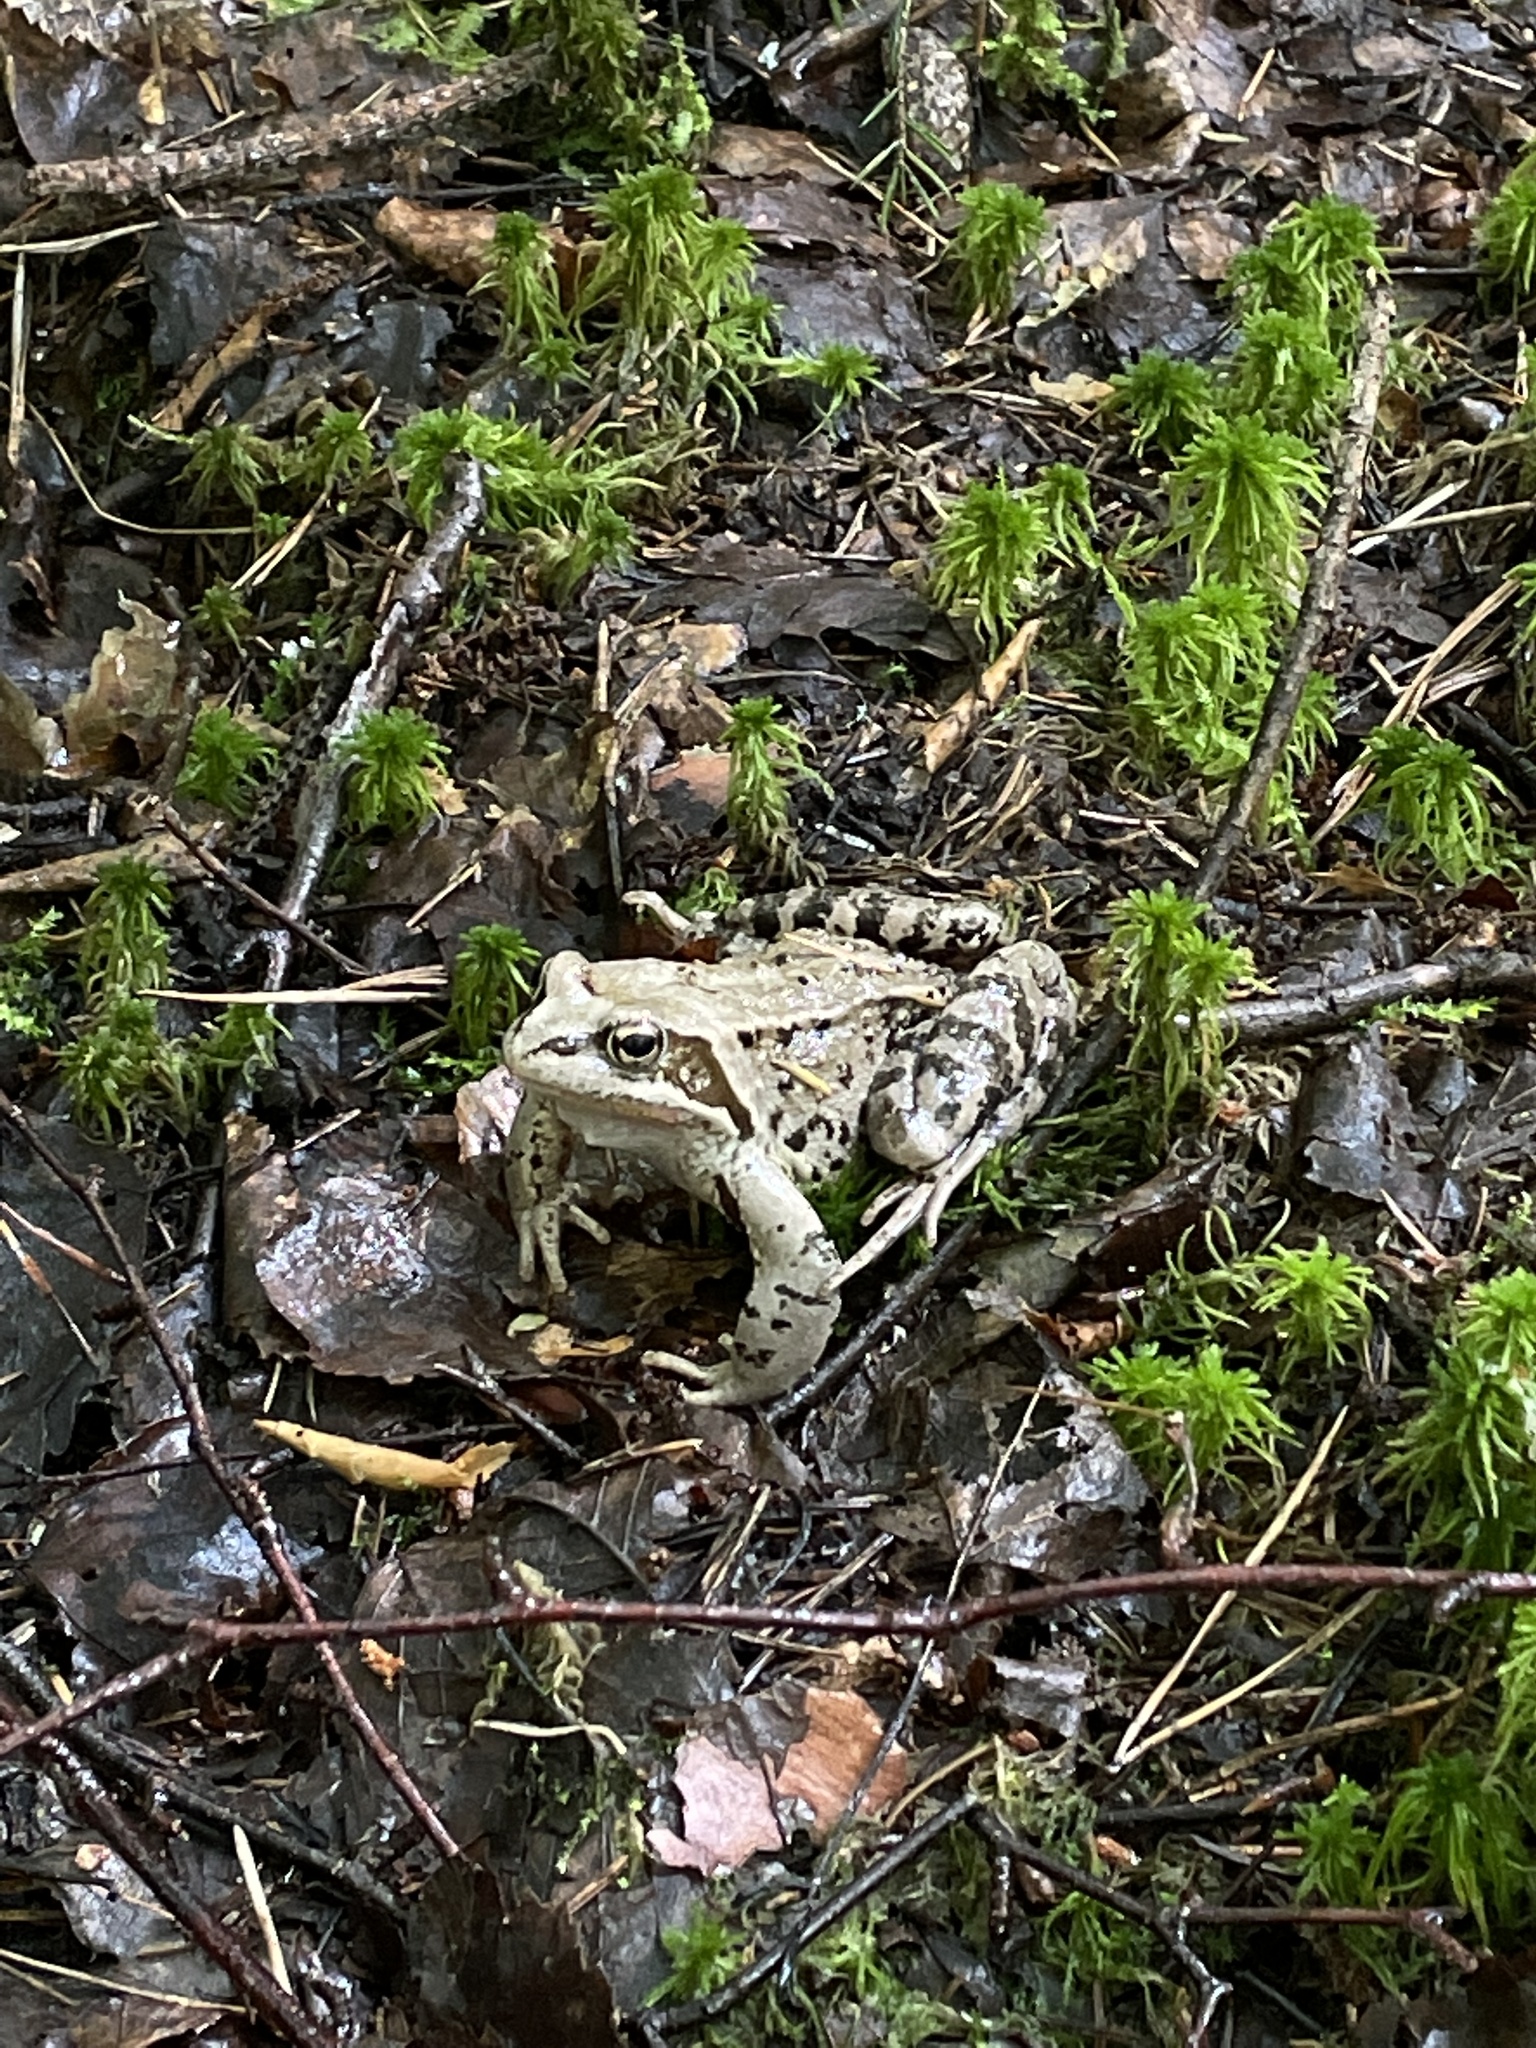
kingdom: Animalia
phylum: Chordata
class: Amphibia
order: Anura
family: Ranidae
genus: Rana
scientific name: Rana temporaria
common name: Common frog
